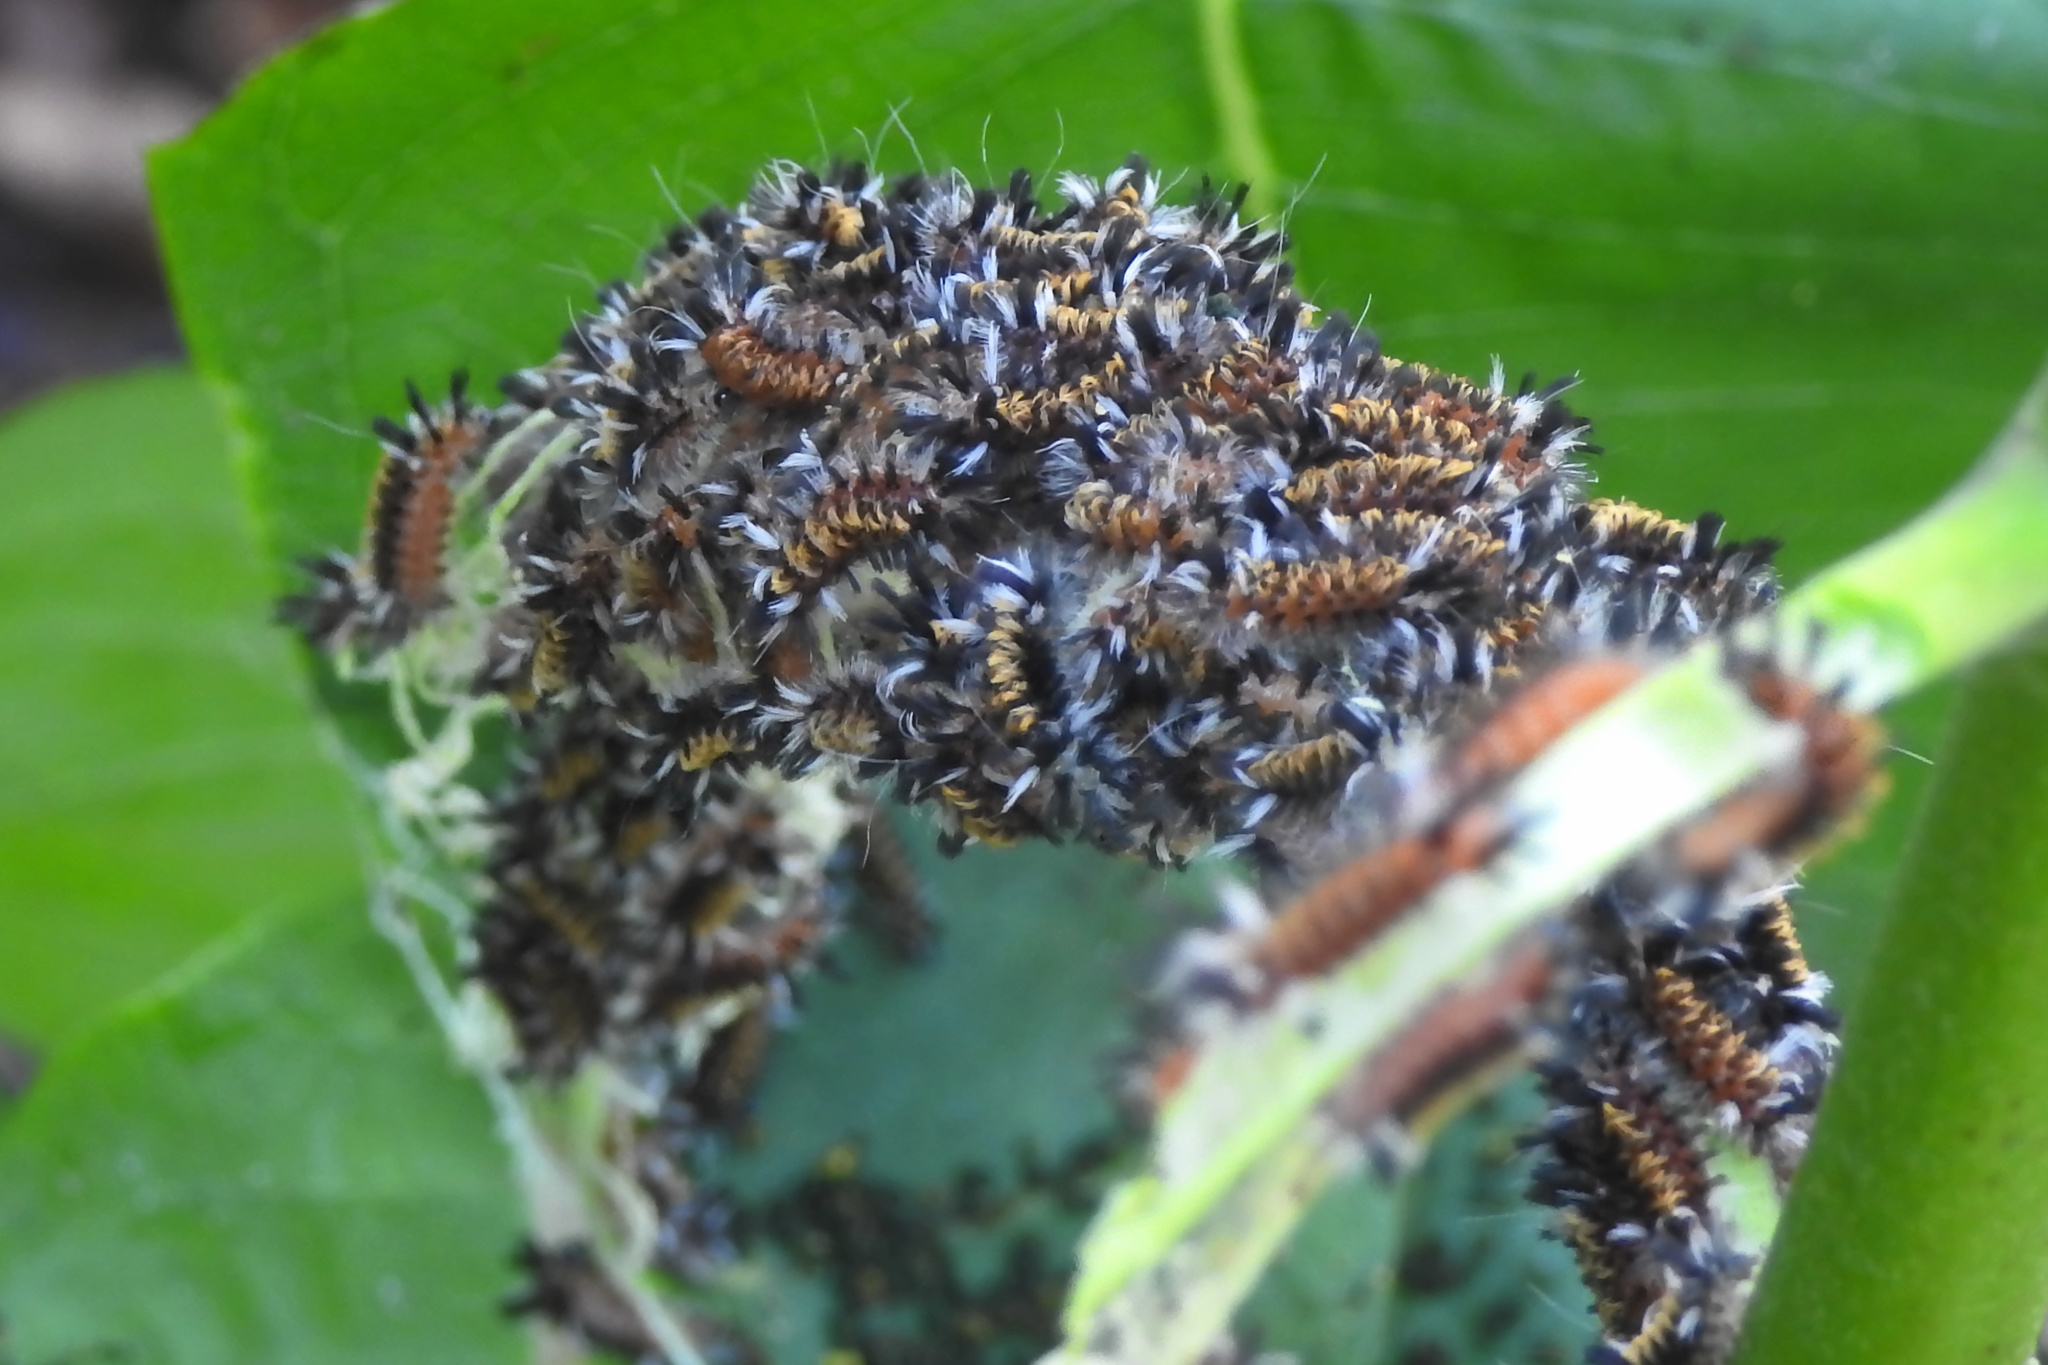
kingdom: Animalia
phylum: Arthropoda
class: Insecta
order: Lepidoptera
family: Erebidae
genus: Euchaetes
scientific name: Euchaetes egle
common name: Milkweed tussock moth
